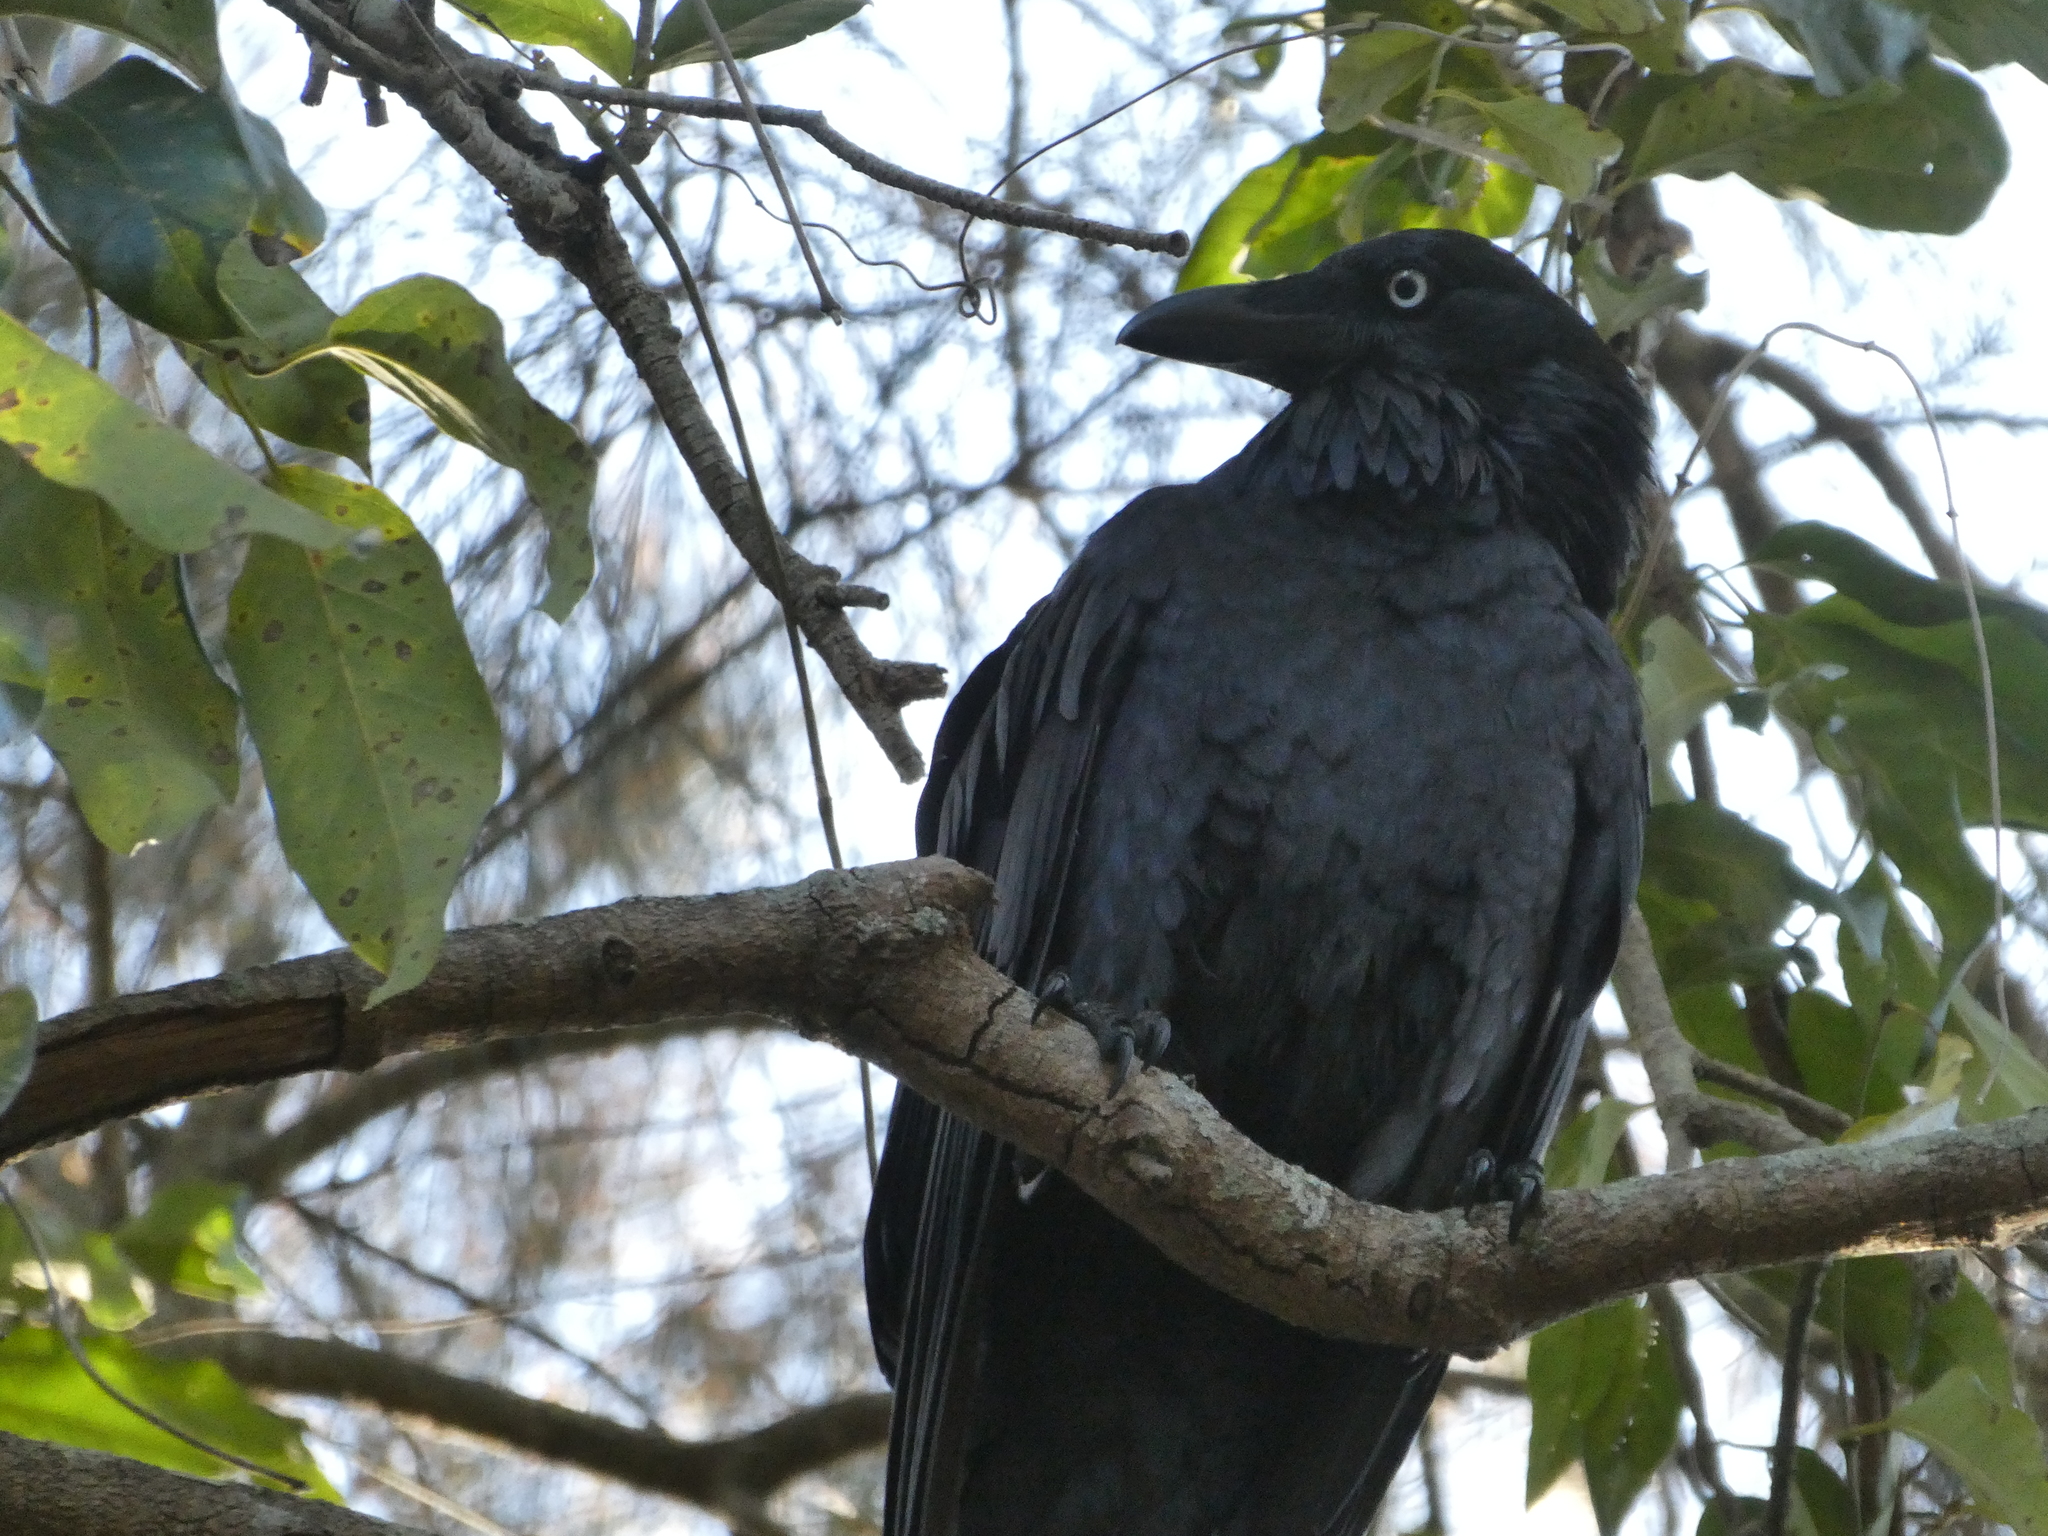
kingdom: Animalia
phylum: Chordata
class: Aves
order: Passeriformes
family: Corvidae
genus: Corvus
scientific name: Corvus coronoides
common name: Australian raven
